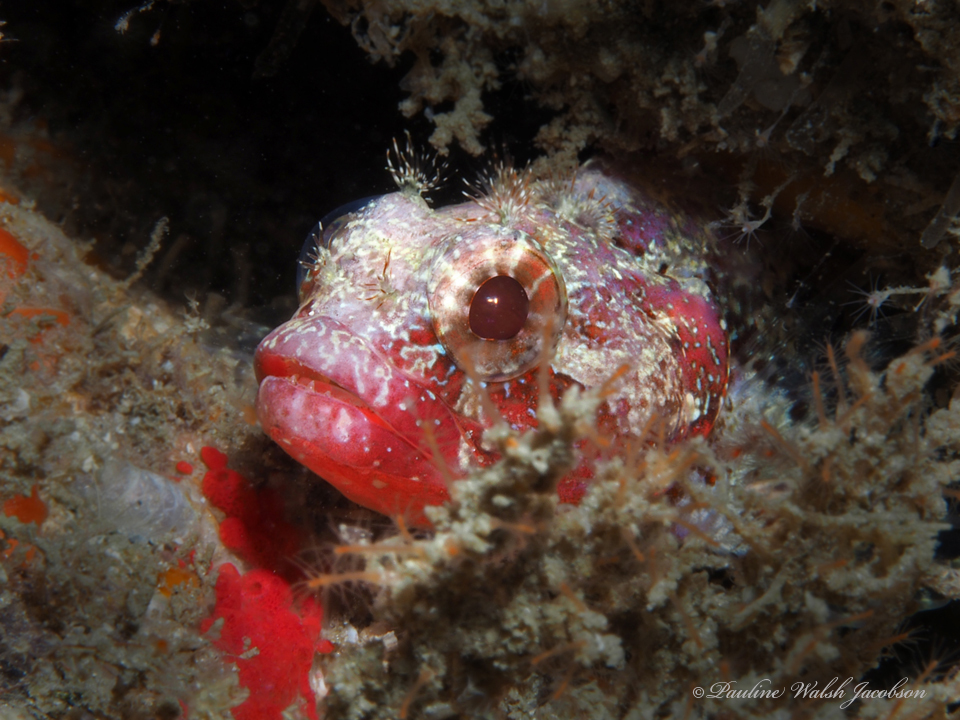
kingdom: Animalia
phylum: Chordata
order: Perciformes
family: Labrisomidae
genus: Gobioclinus
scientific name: Gobioclinus kalisherae
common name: Downy blenny
